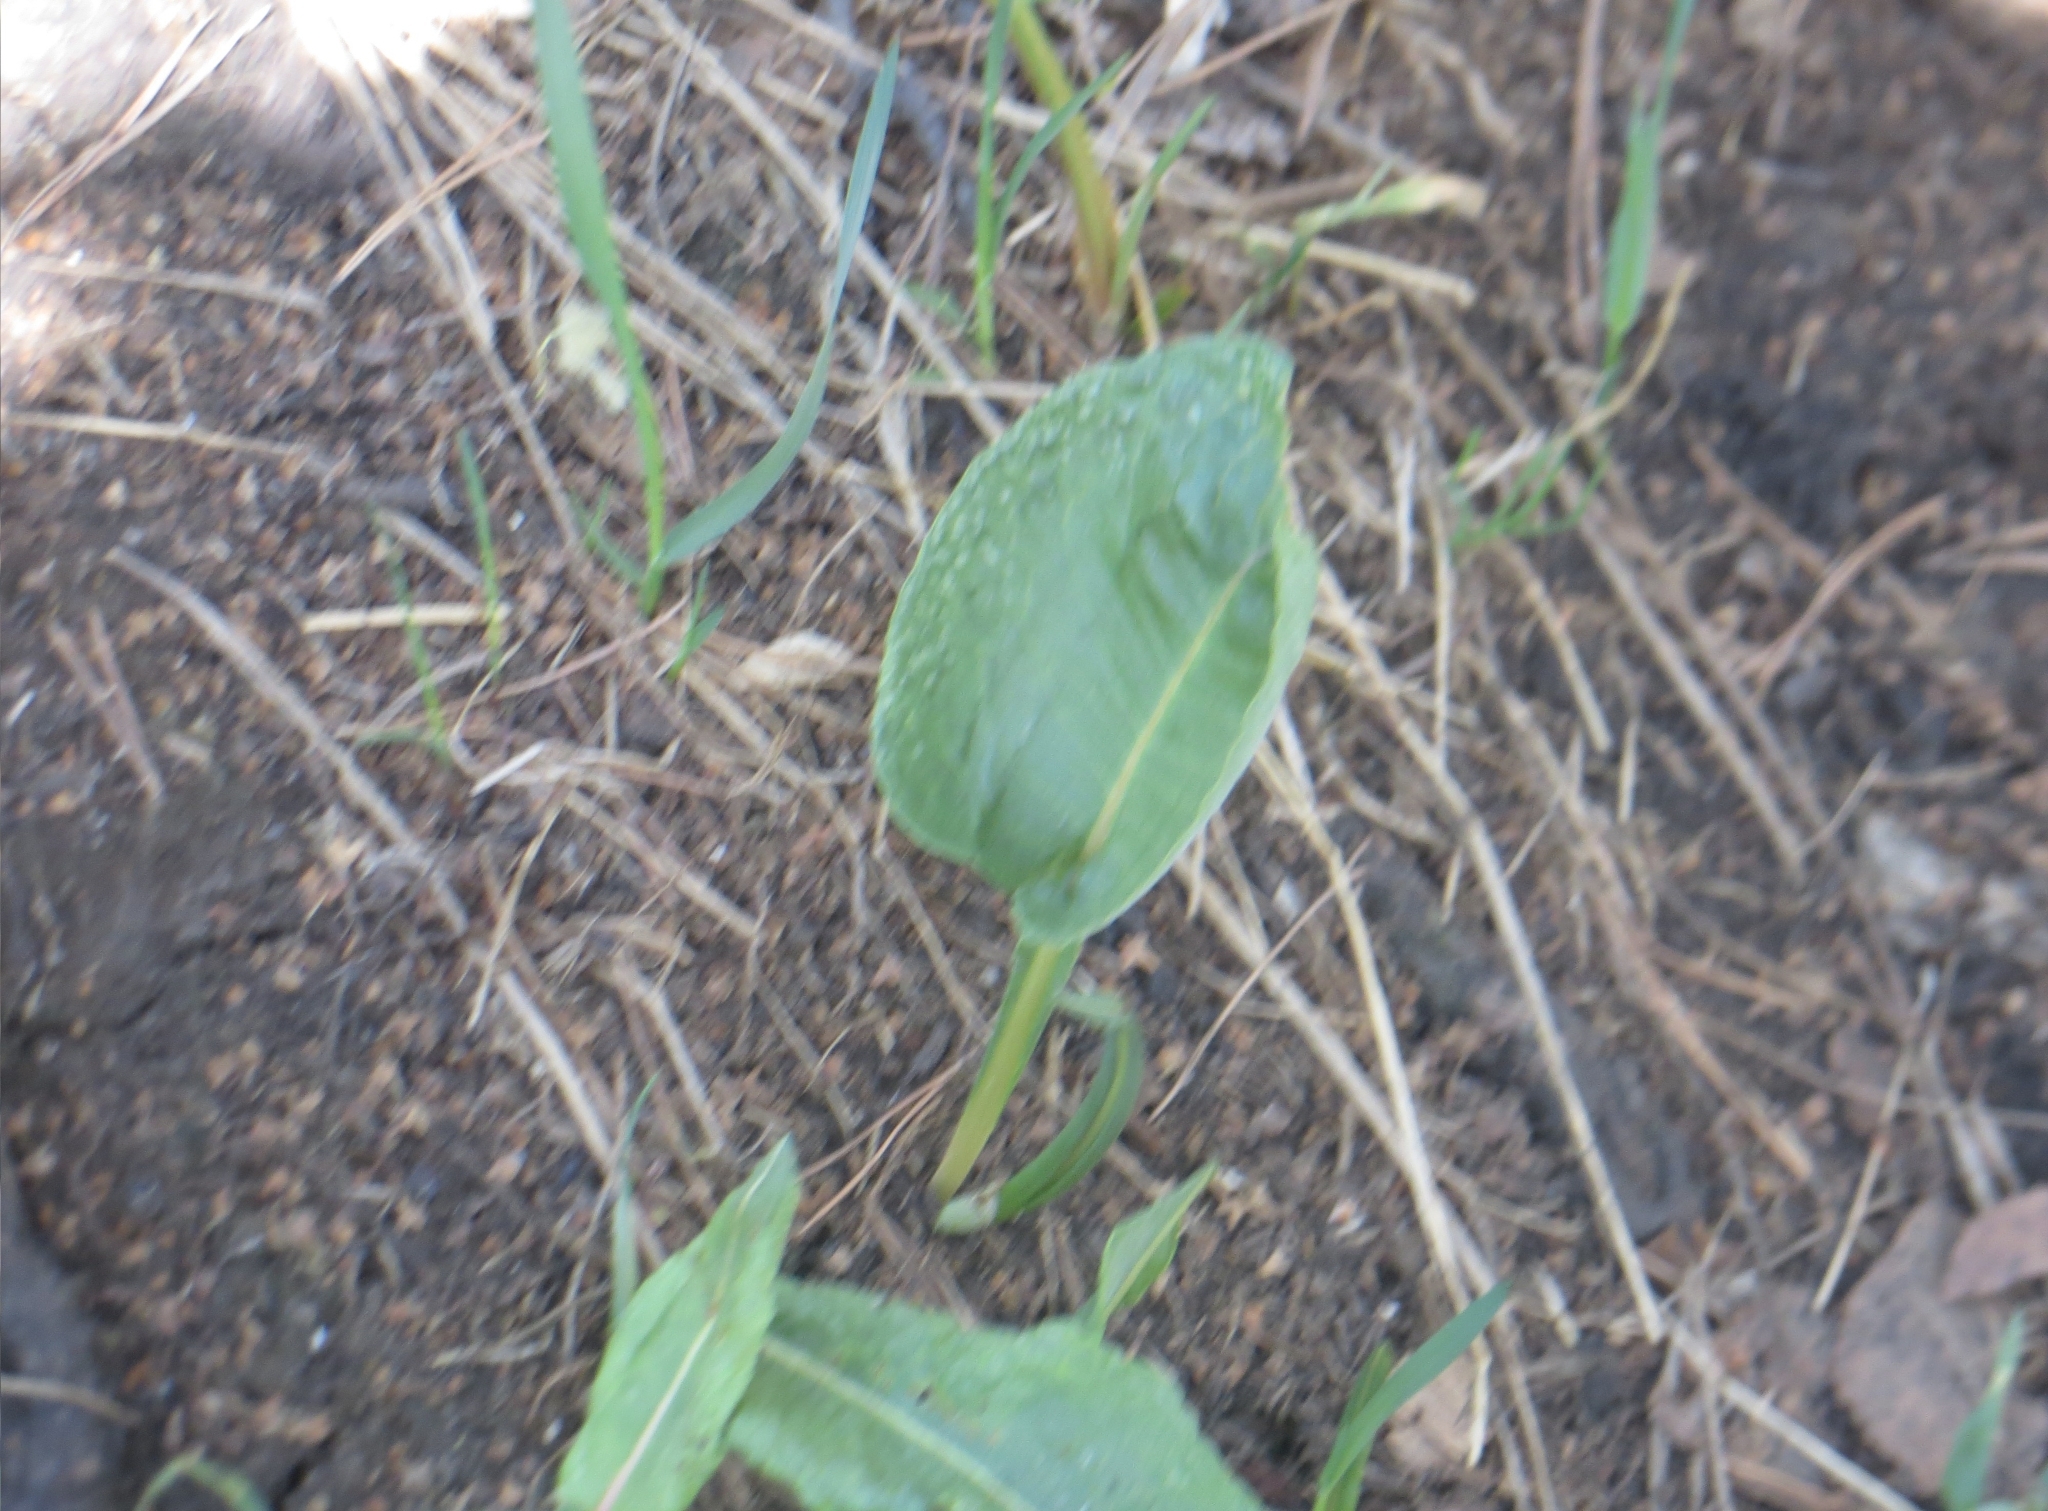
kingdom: Plantae
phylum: Tracheophyta
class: Magnoliopsida
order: Caryophyllales
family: Polygonaceae
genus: Bistorta
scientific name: Bistorta officinalis
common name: Common bistort
